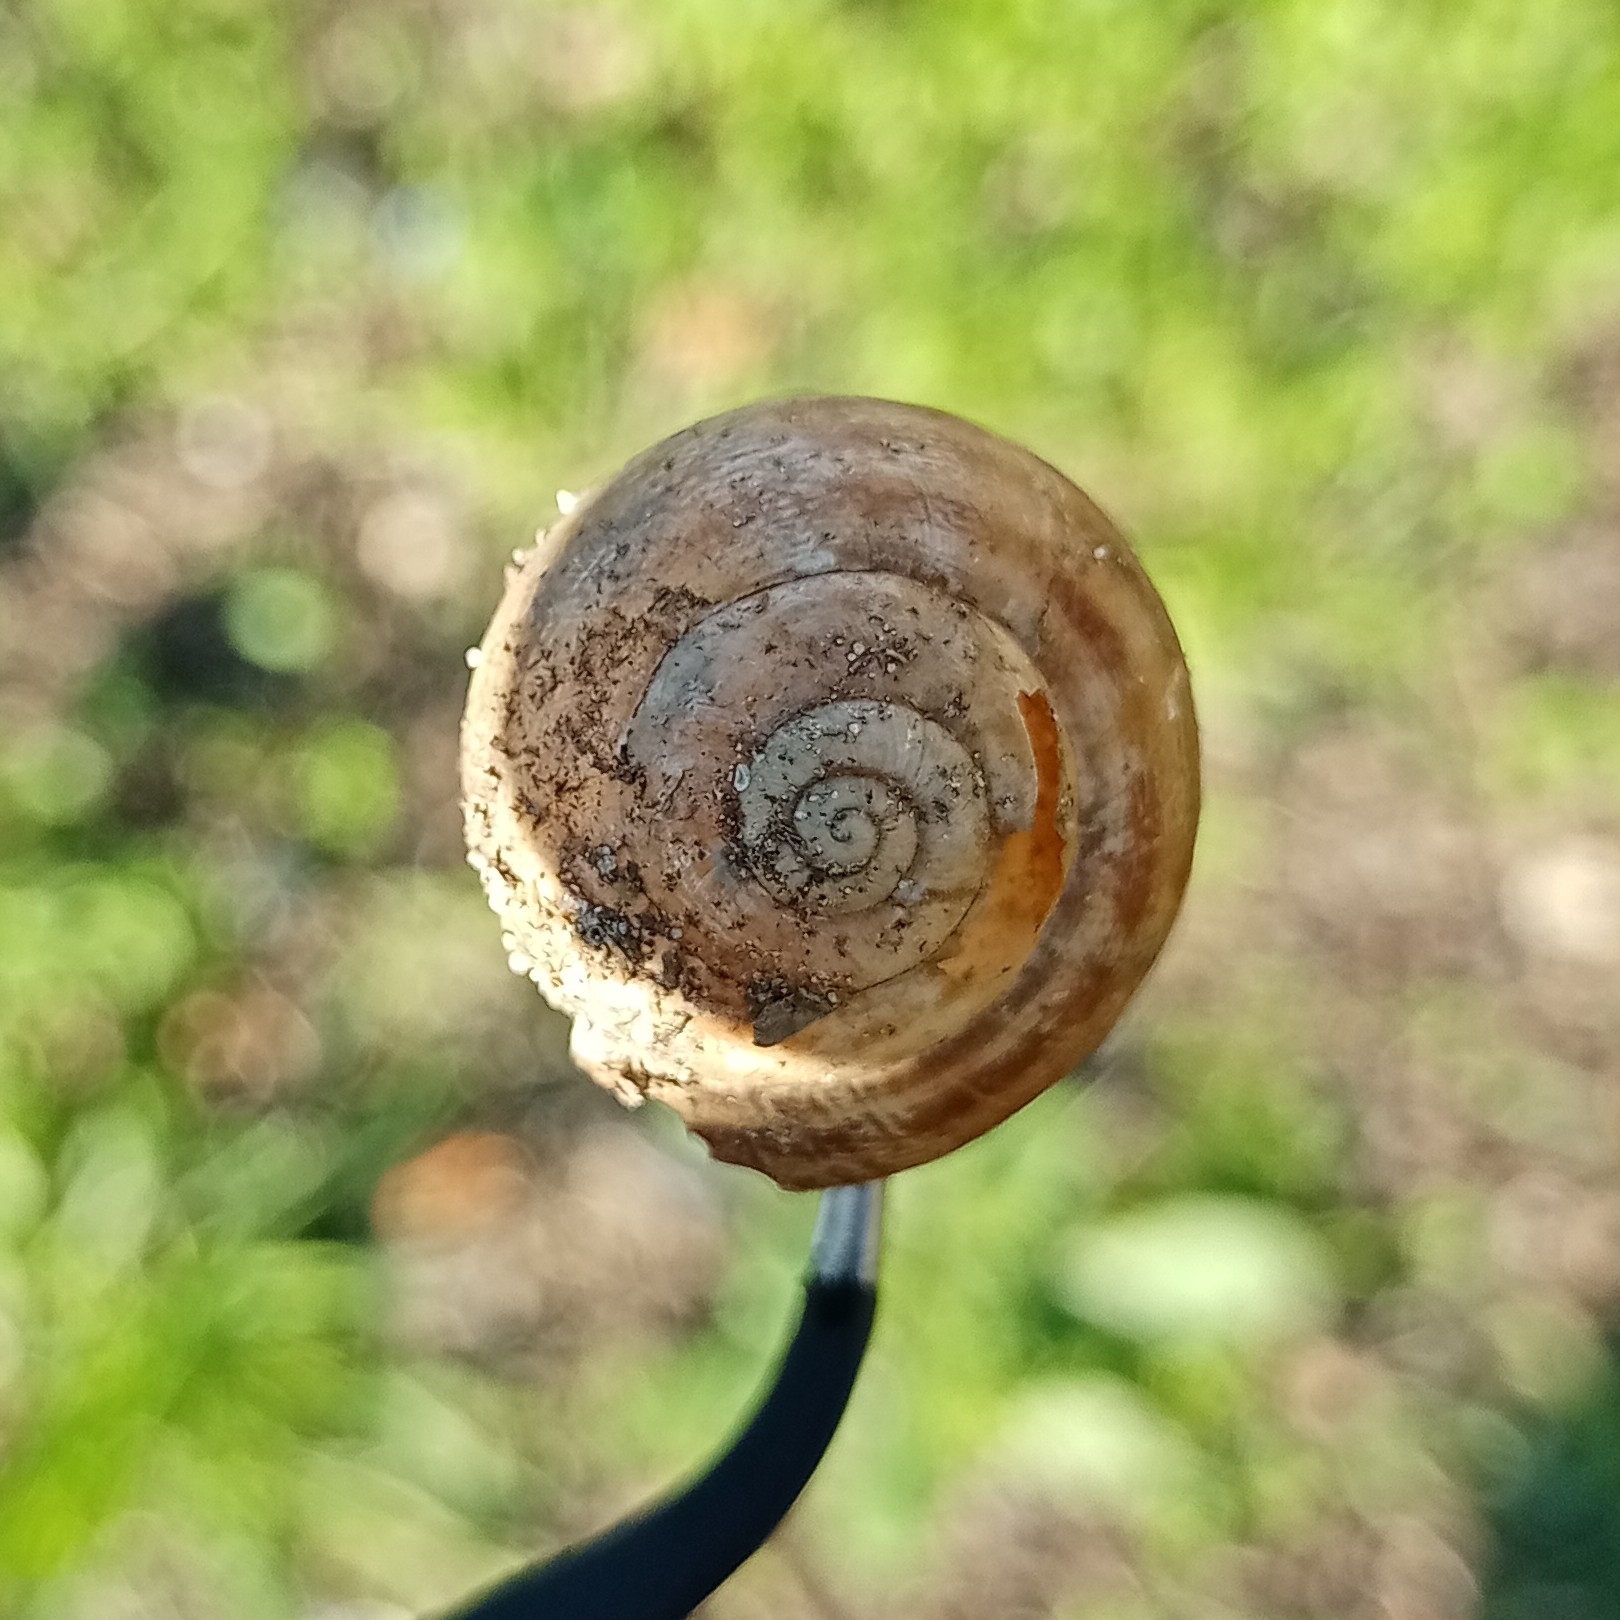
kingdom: Animalia
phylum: Mollusca
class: Gastropoda
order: Stylommatophora
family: Helicidae
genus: Eobania
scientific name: Eobania vermiculata
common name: Chocolateband snail
